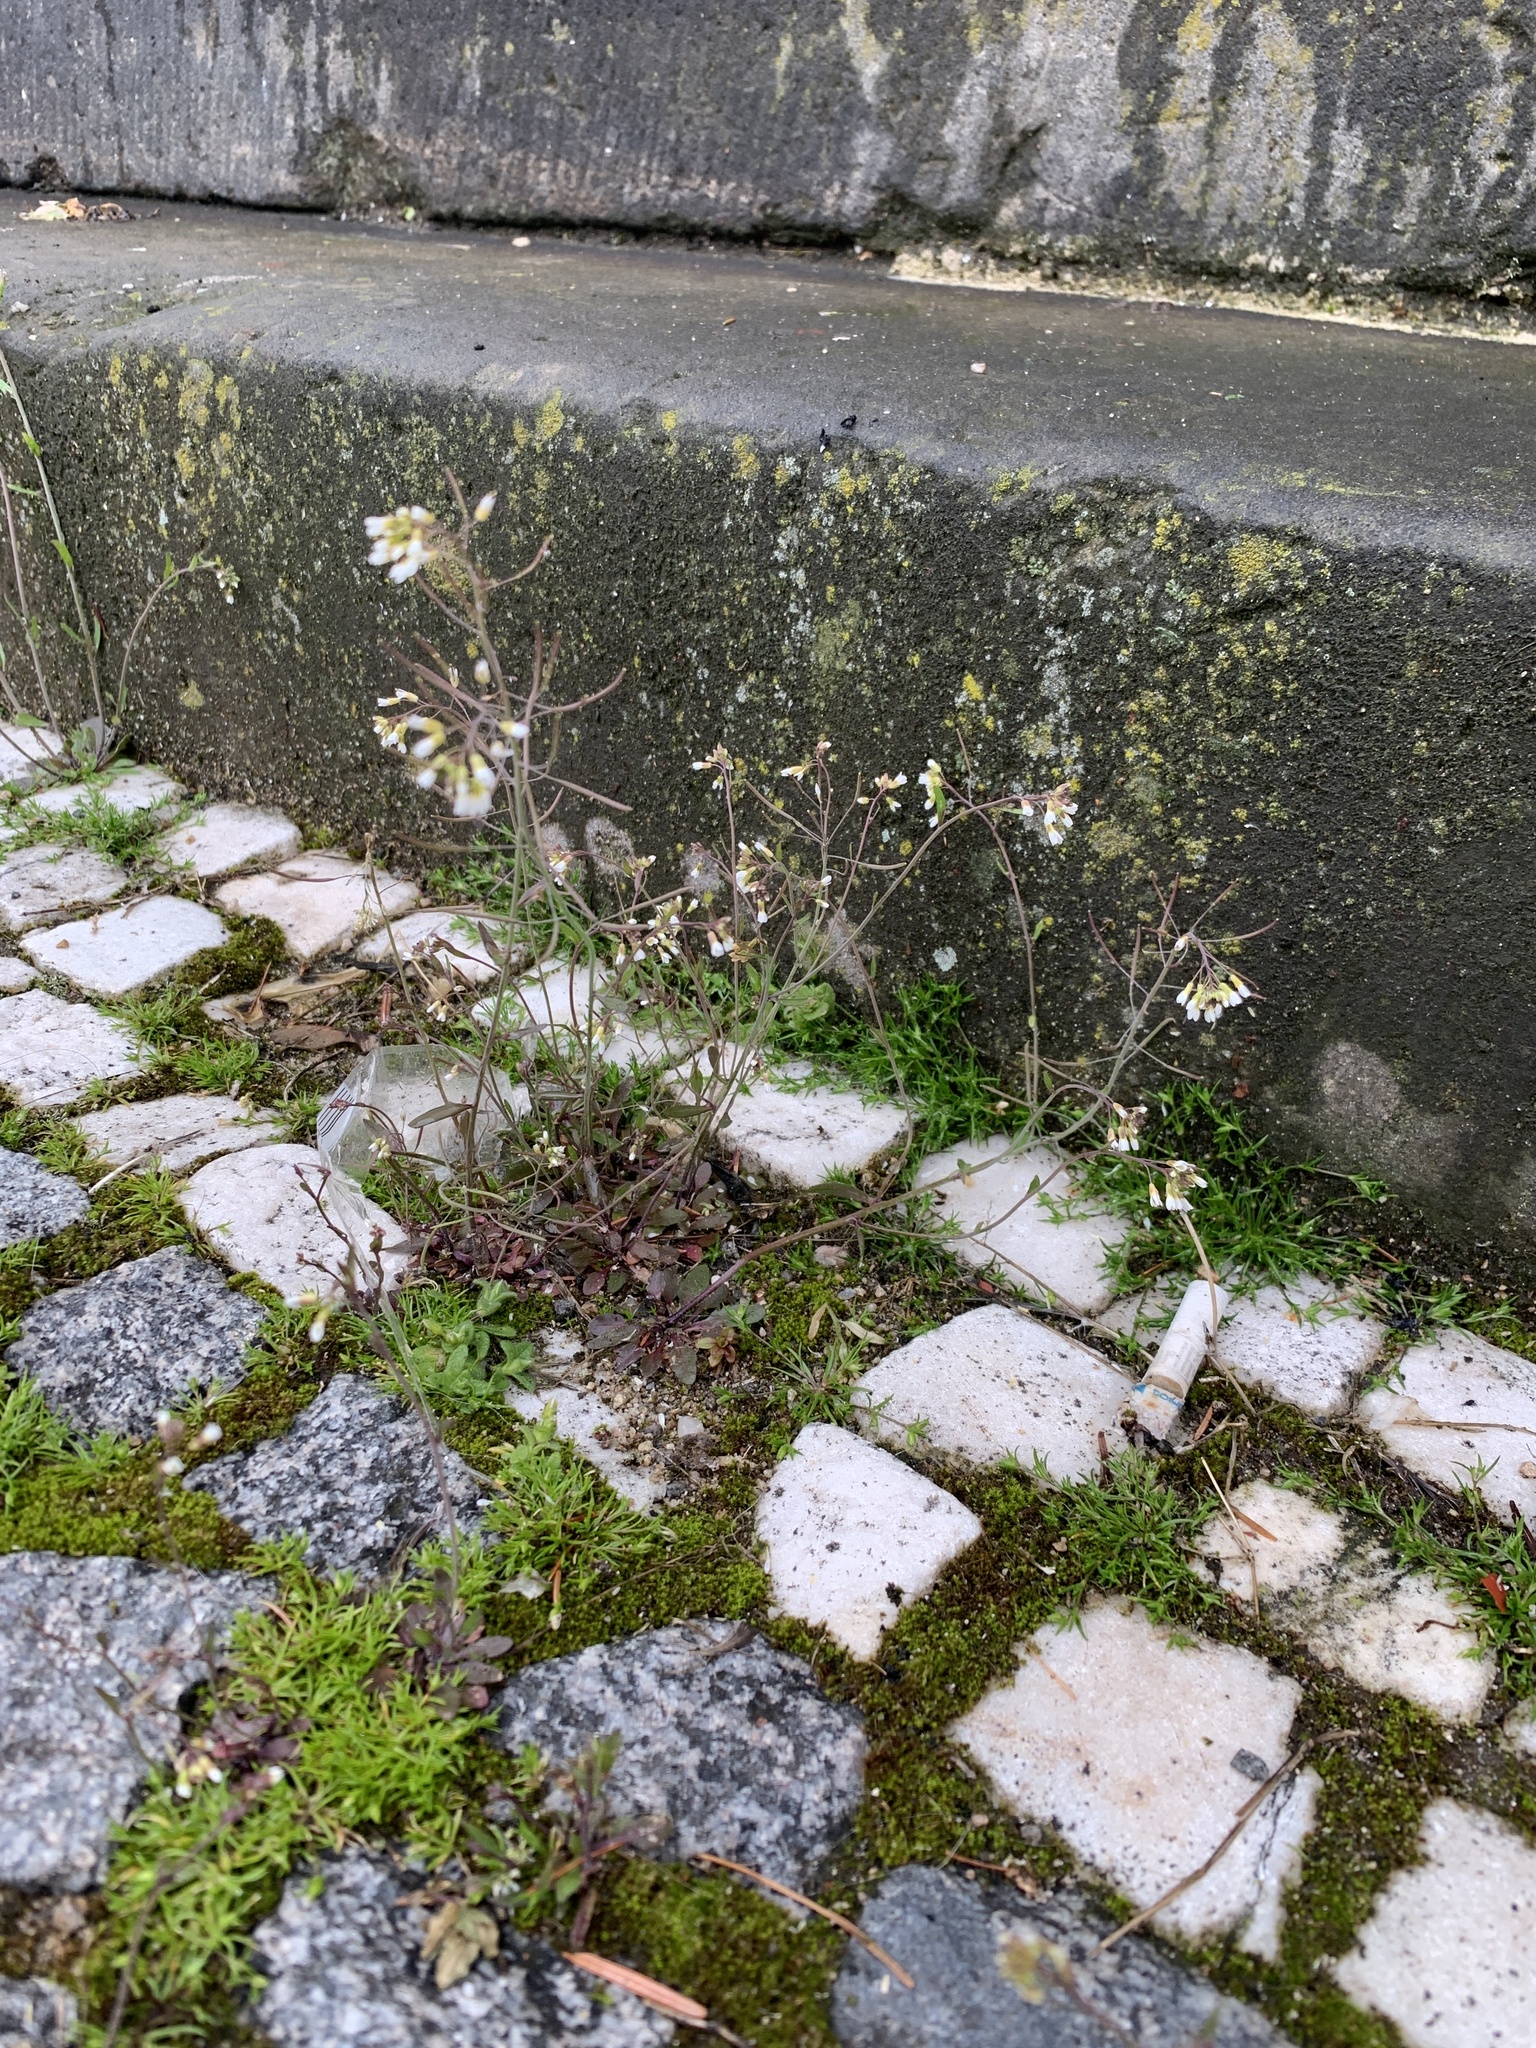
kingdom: Plantae
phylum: Tracheophyta
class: Magnoliopsida
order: Brassicales
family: Brassicaceae
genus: Arabidopsis
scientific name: Arabidopsis thaliana
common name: Thale cress
